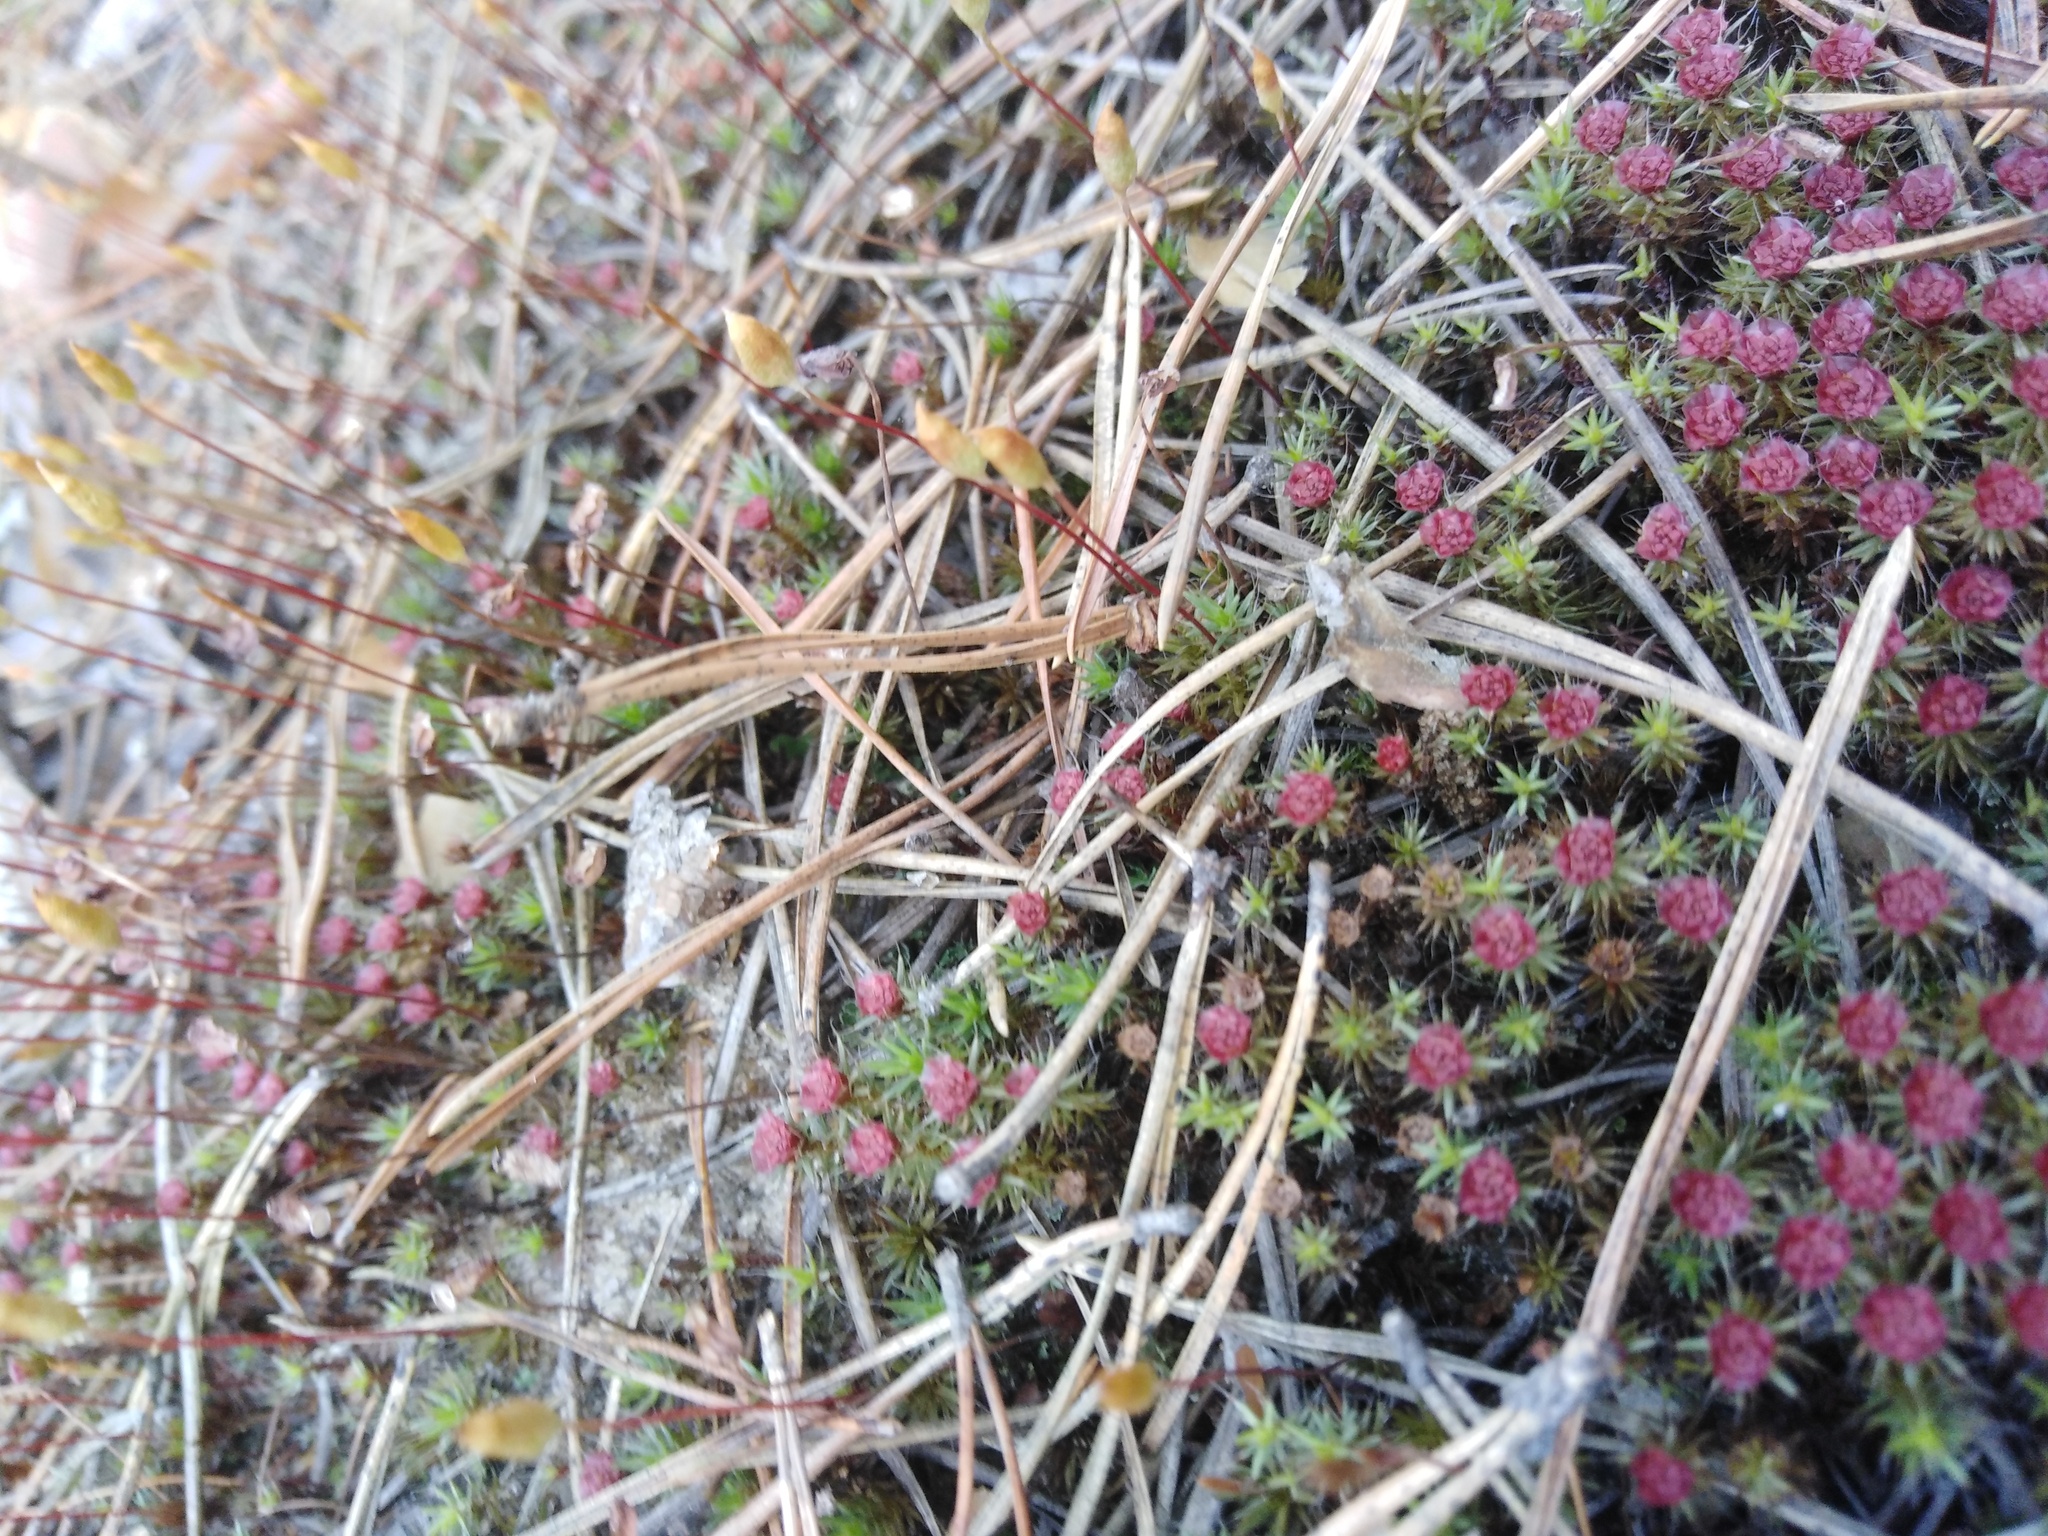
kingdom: Plantae
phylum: Bryophyta
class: Polytrichopsida
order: Polytrichales
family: Polytrichaceae
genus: Polytrichum
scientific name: Polytrichum piliferum
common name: Bristly haircap
